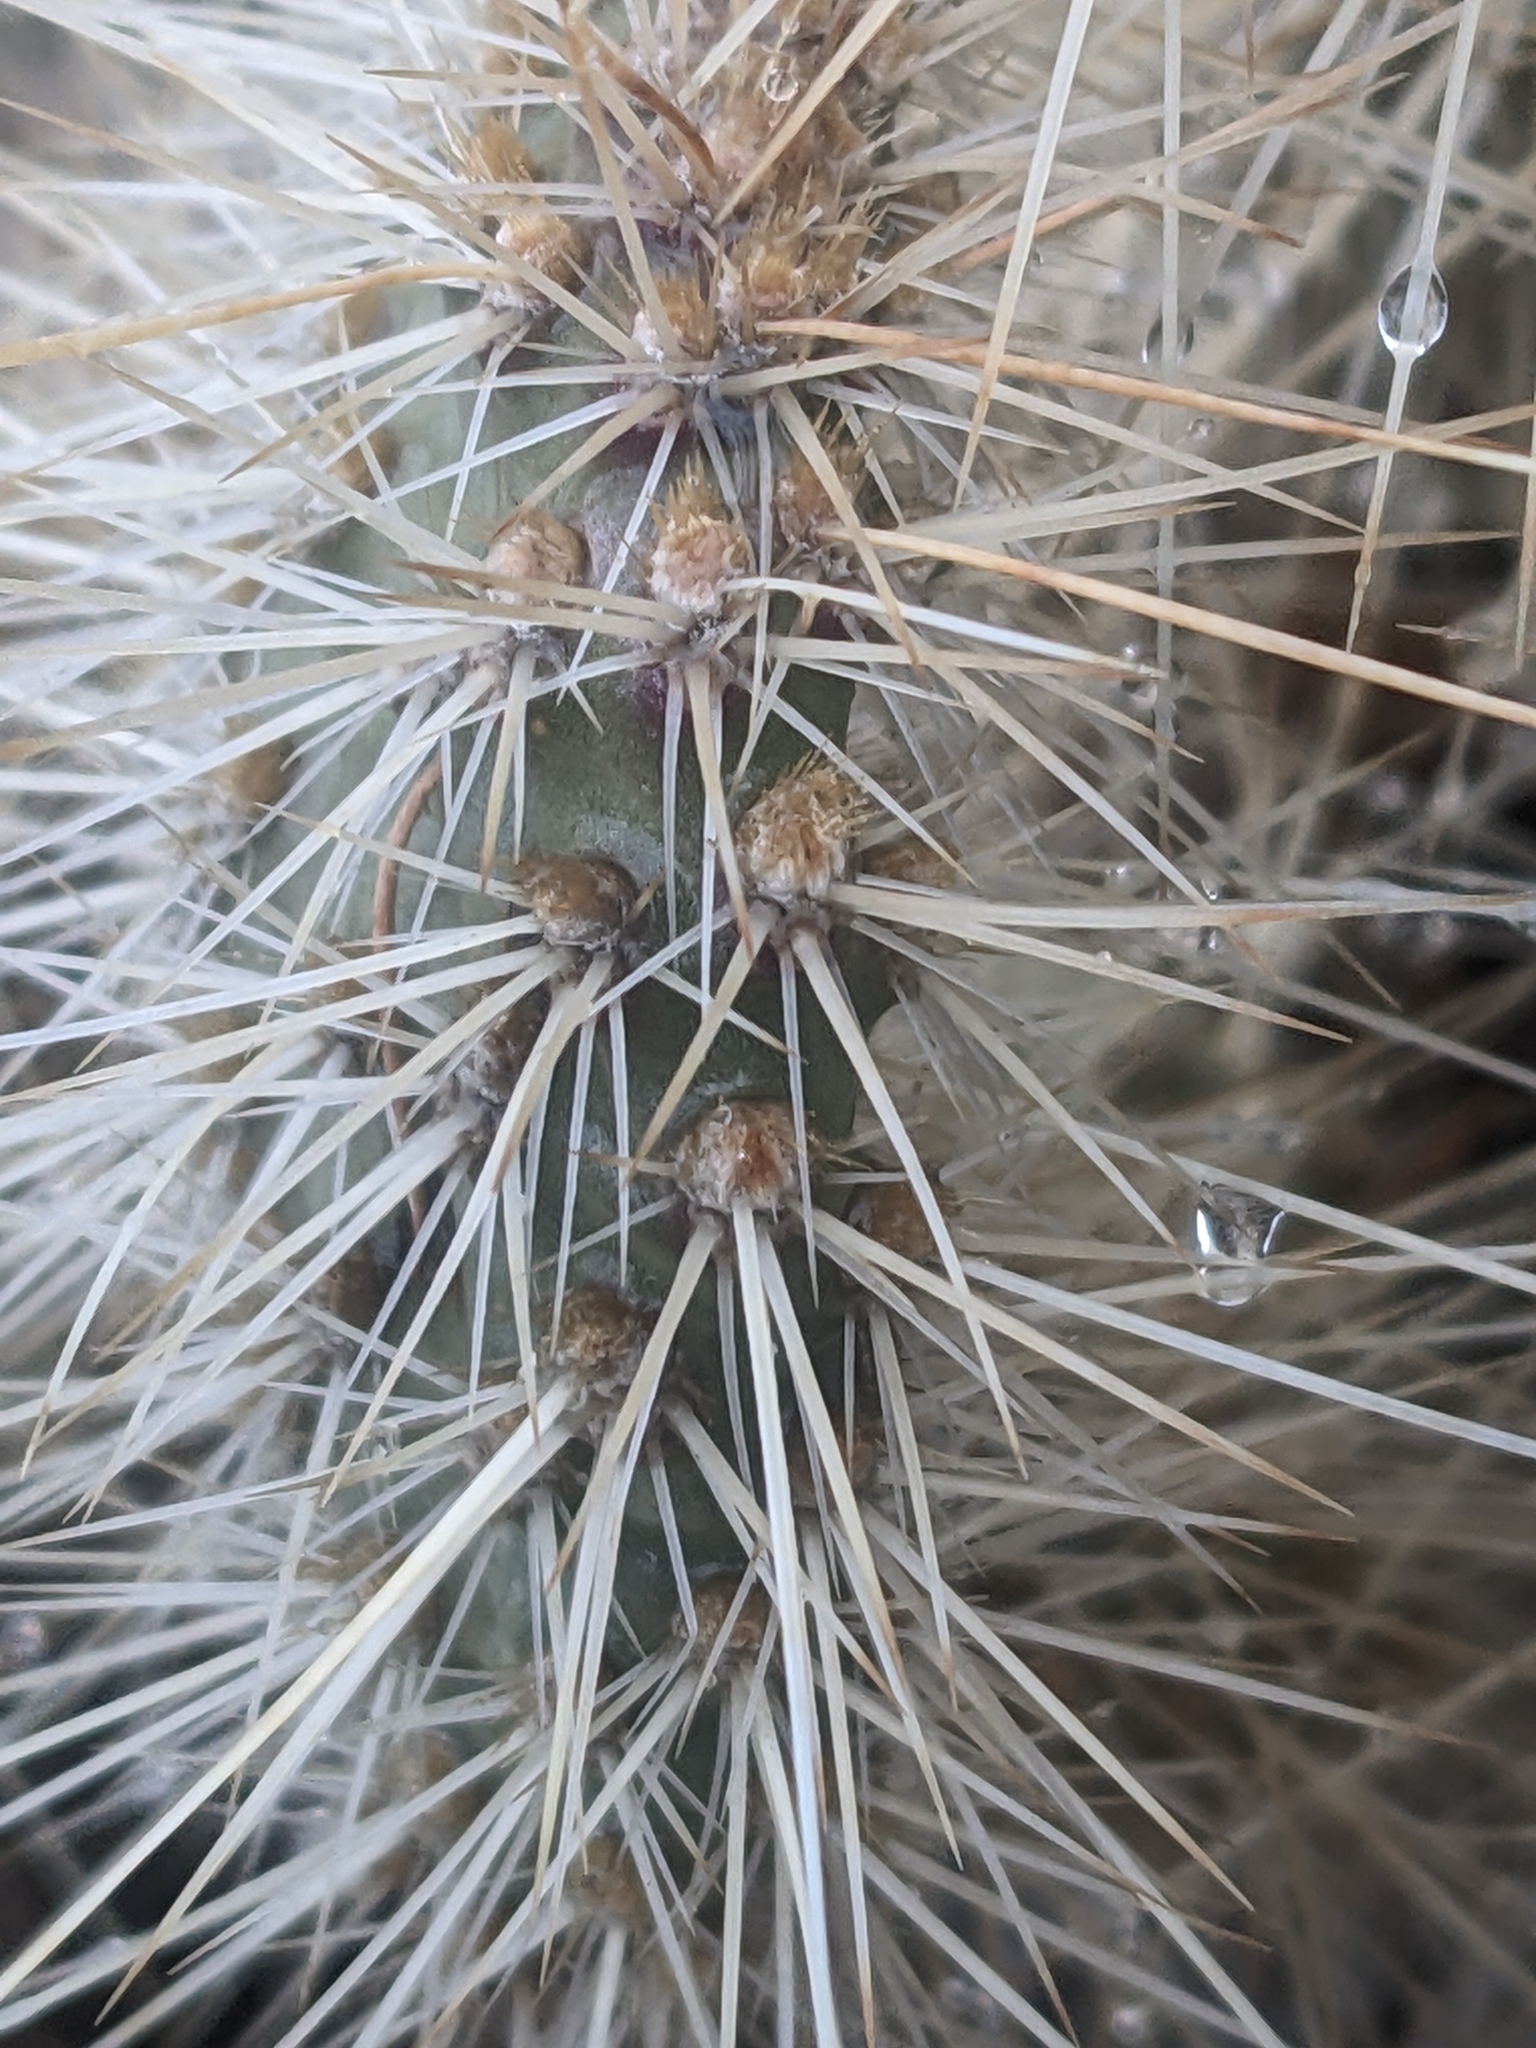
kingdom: Plantae
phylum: Tracheophyta
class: Magnoliopsida
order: Caryophyllales
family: Cactaceae
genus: Opuntia
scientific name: Opuntia polyacantha
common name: Plains prickly-pear
